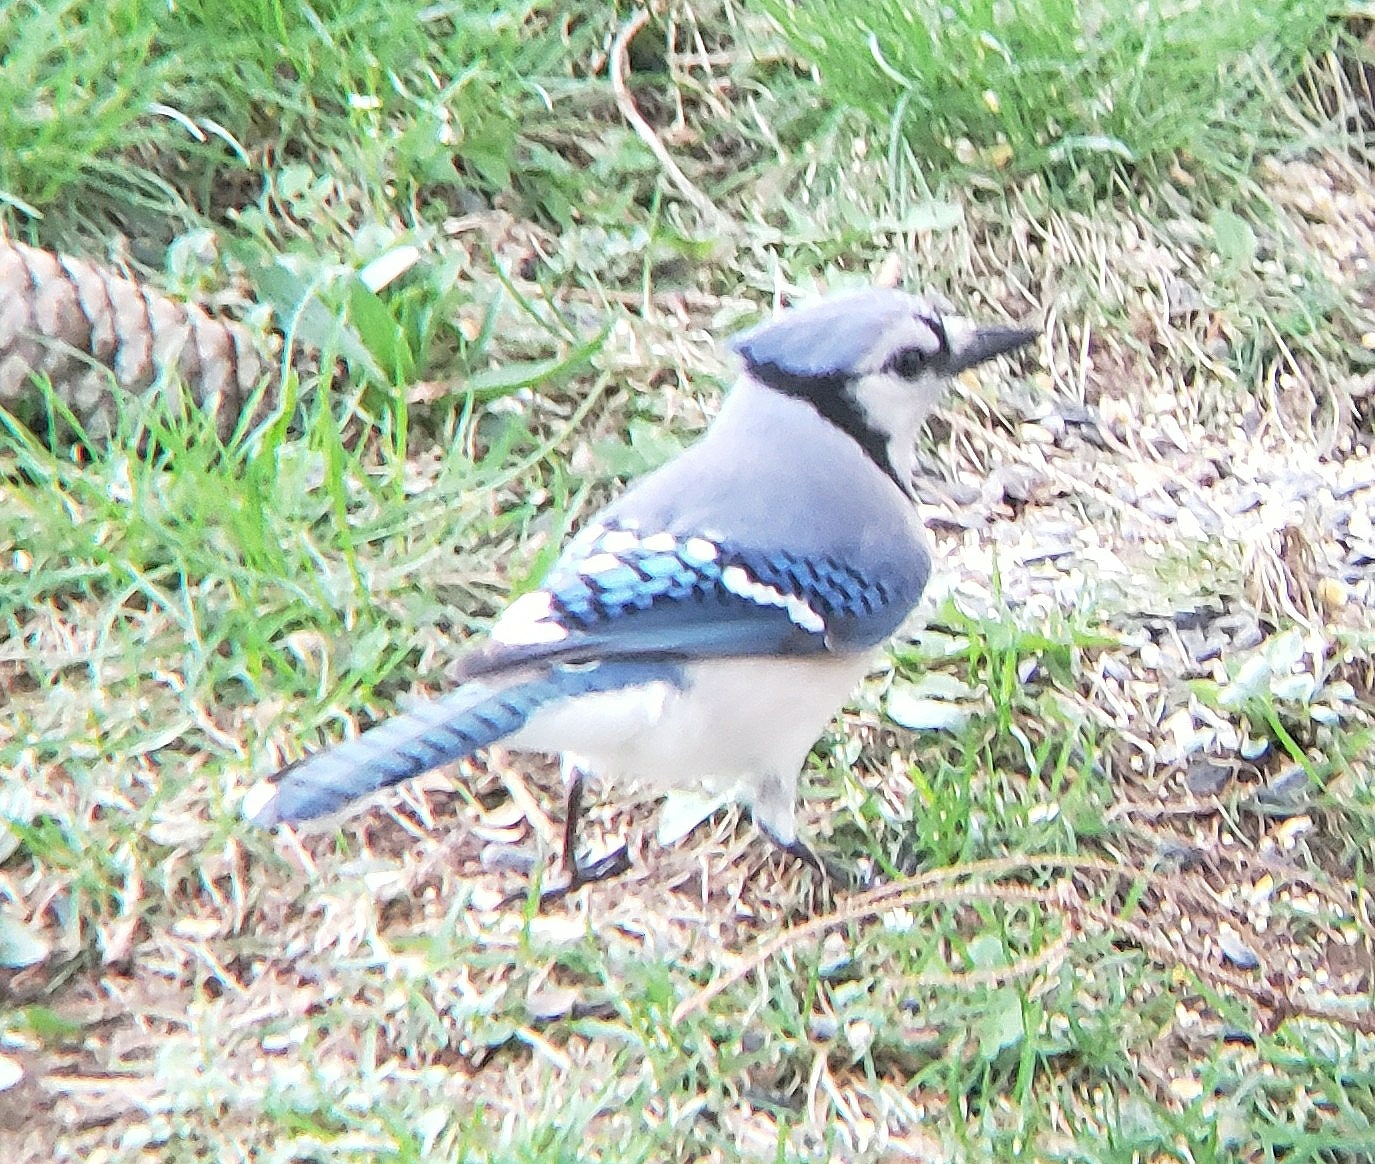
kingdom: Animalia
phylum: Chordata
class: Aves
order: Passeriformes
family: Corvidae
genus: Cyanocitta
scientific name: Cyanocitta cristata
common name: Blue jay
